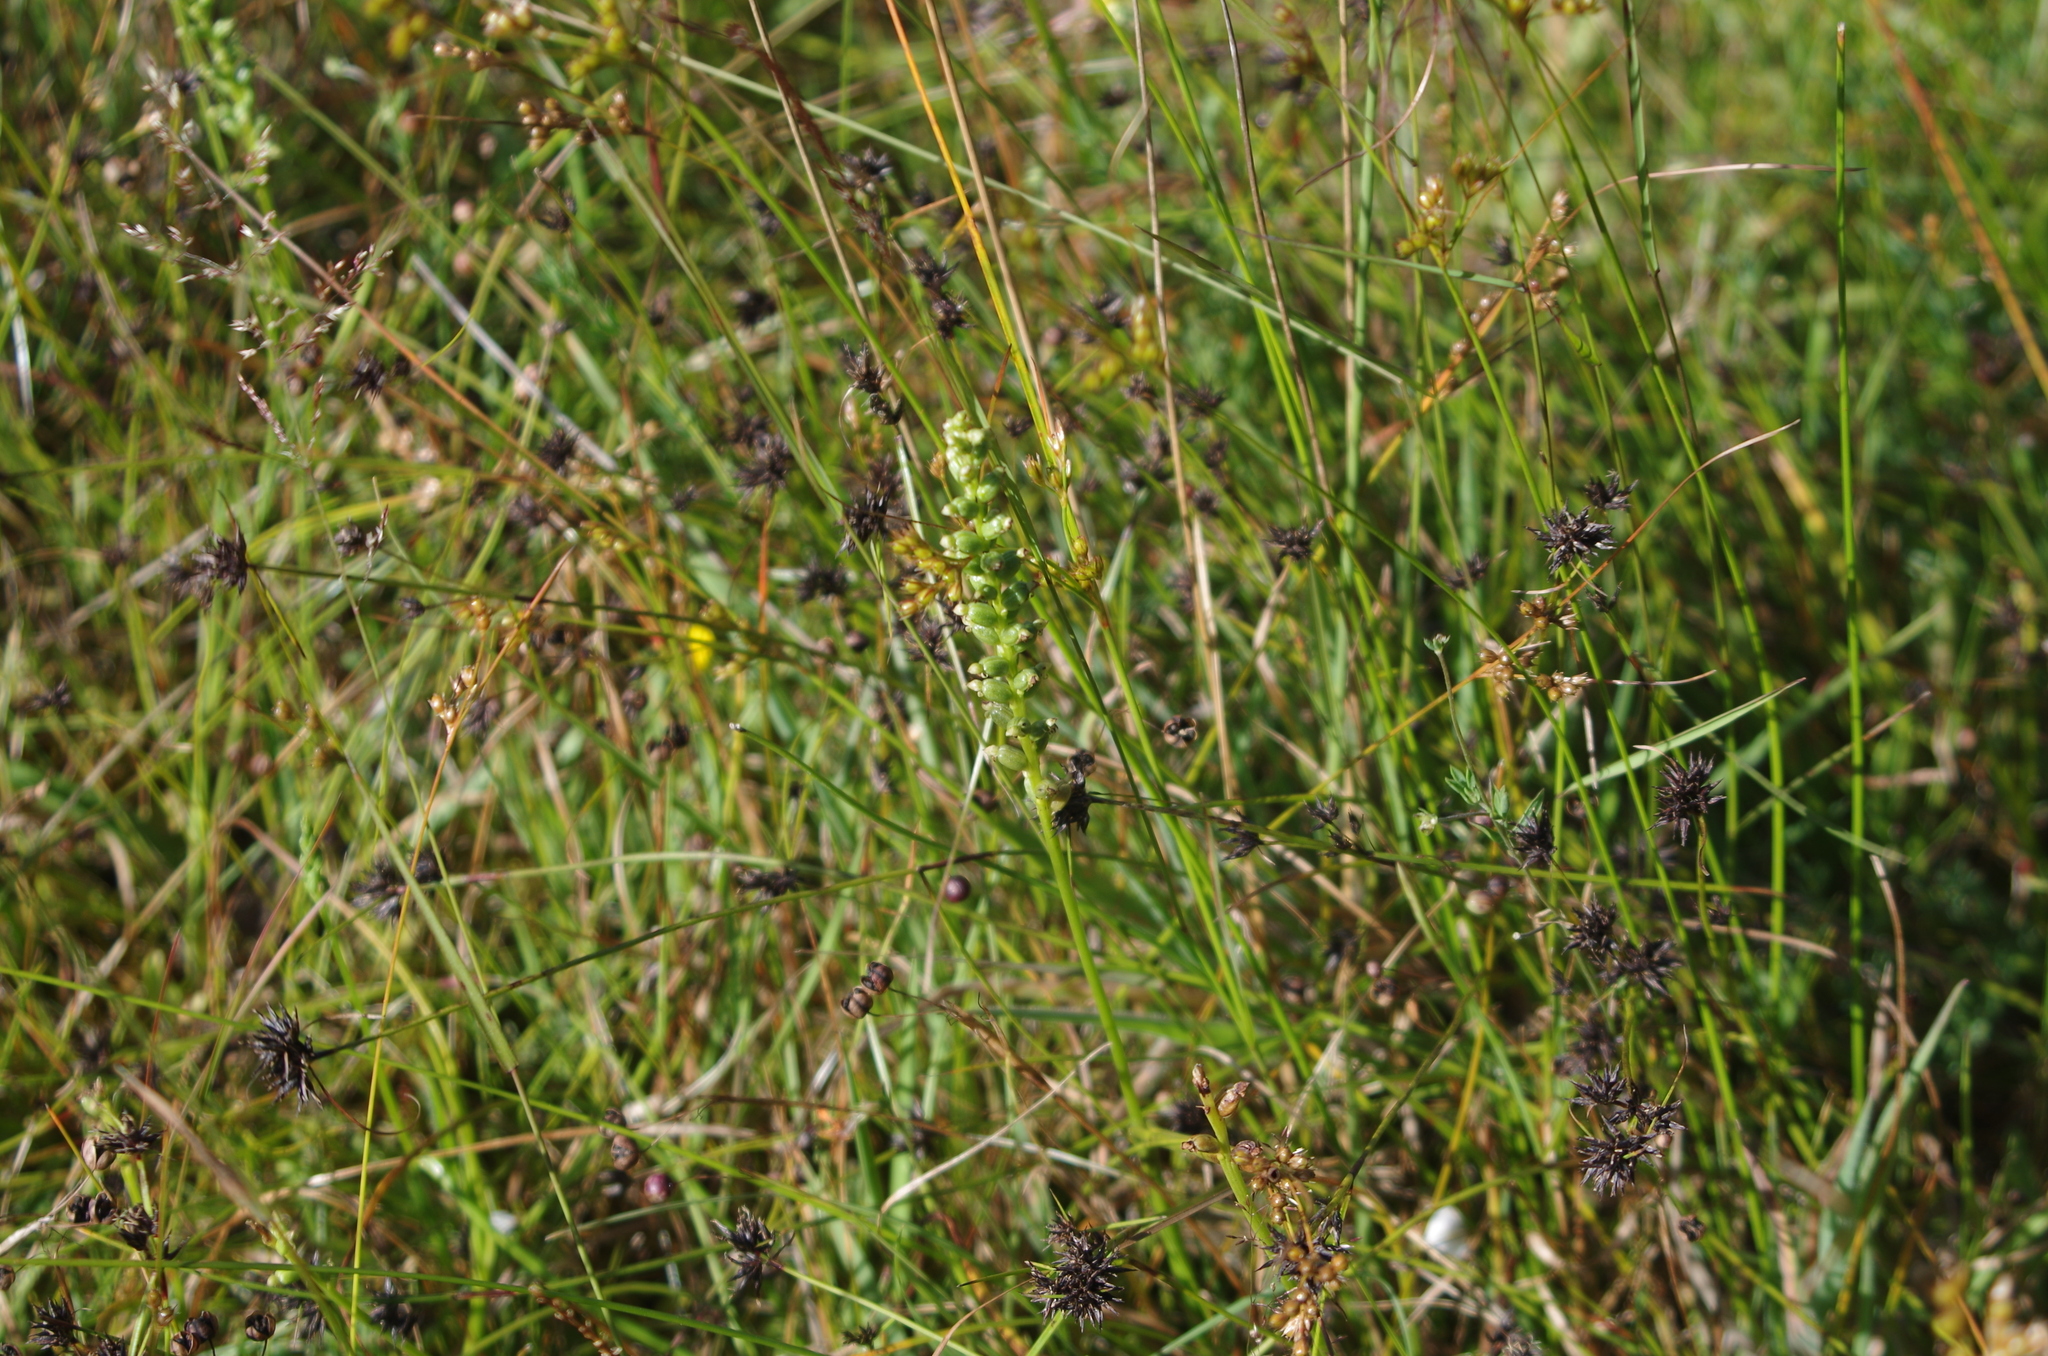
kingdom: Plantae
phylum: Tracheophyta
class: Liliopsida
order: Asparagales
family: Orchidaceae
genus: Microtis
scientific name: Microtis unifolia
